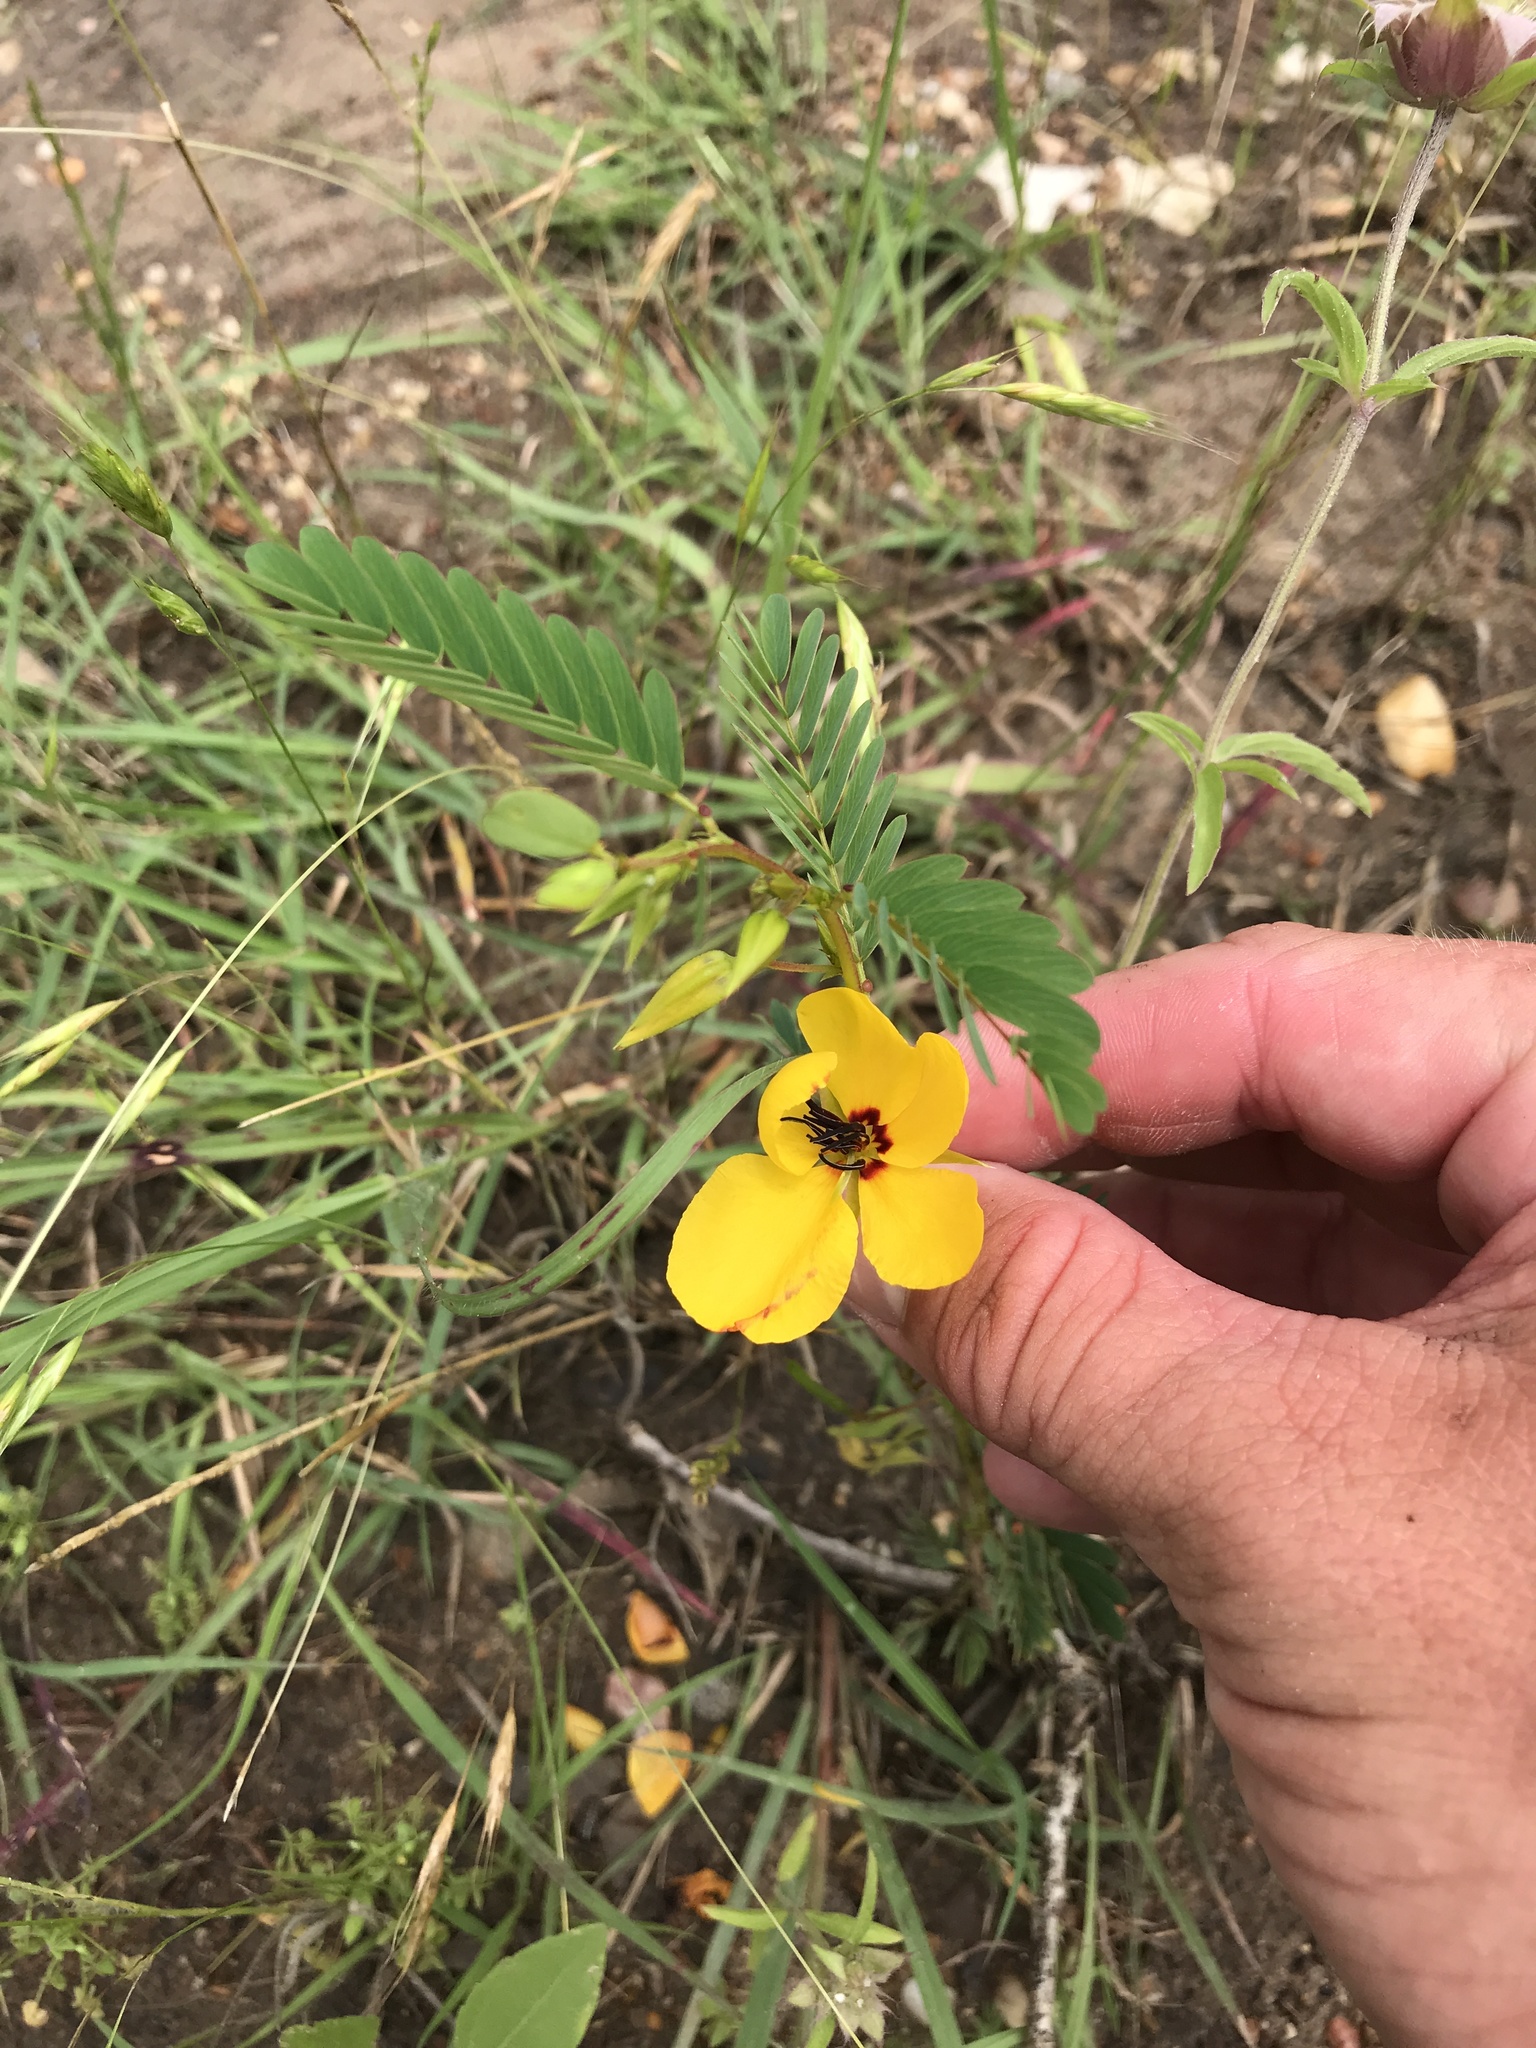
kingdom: Plantae
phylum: Tracheophyta
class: Magnoliopsida
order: Fabales
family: Fabaceae
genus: Chamaecrista
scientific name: Chamaecrista fasciculata
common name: Golden cassia
